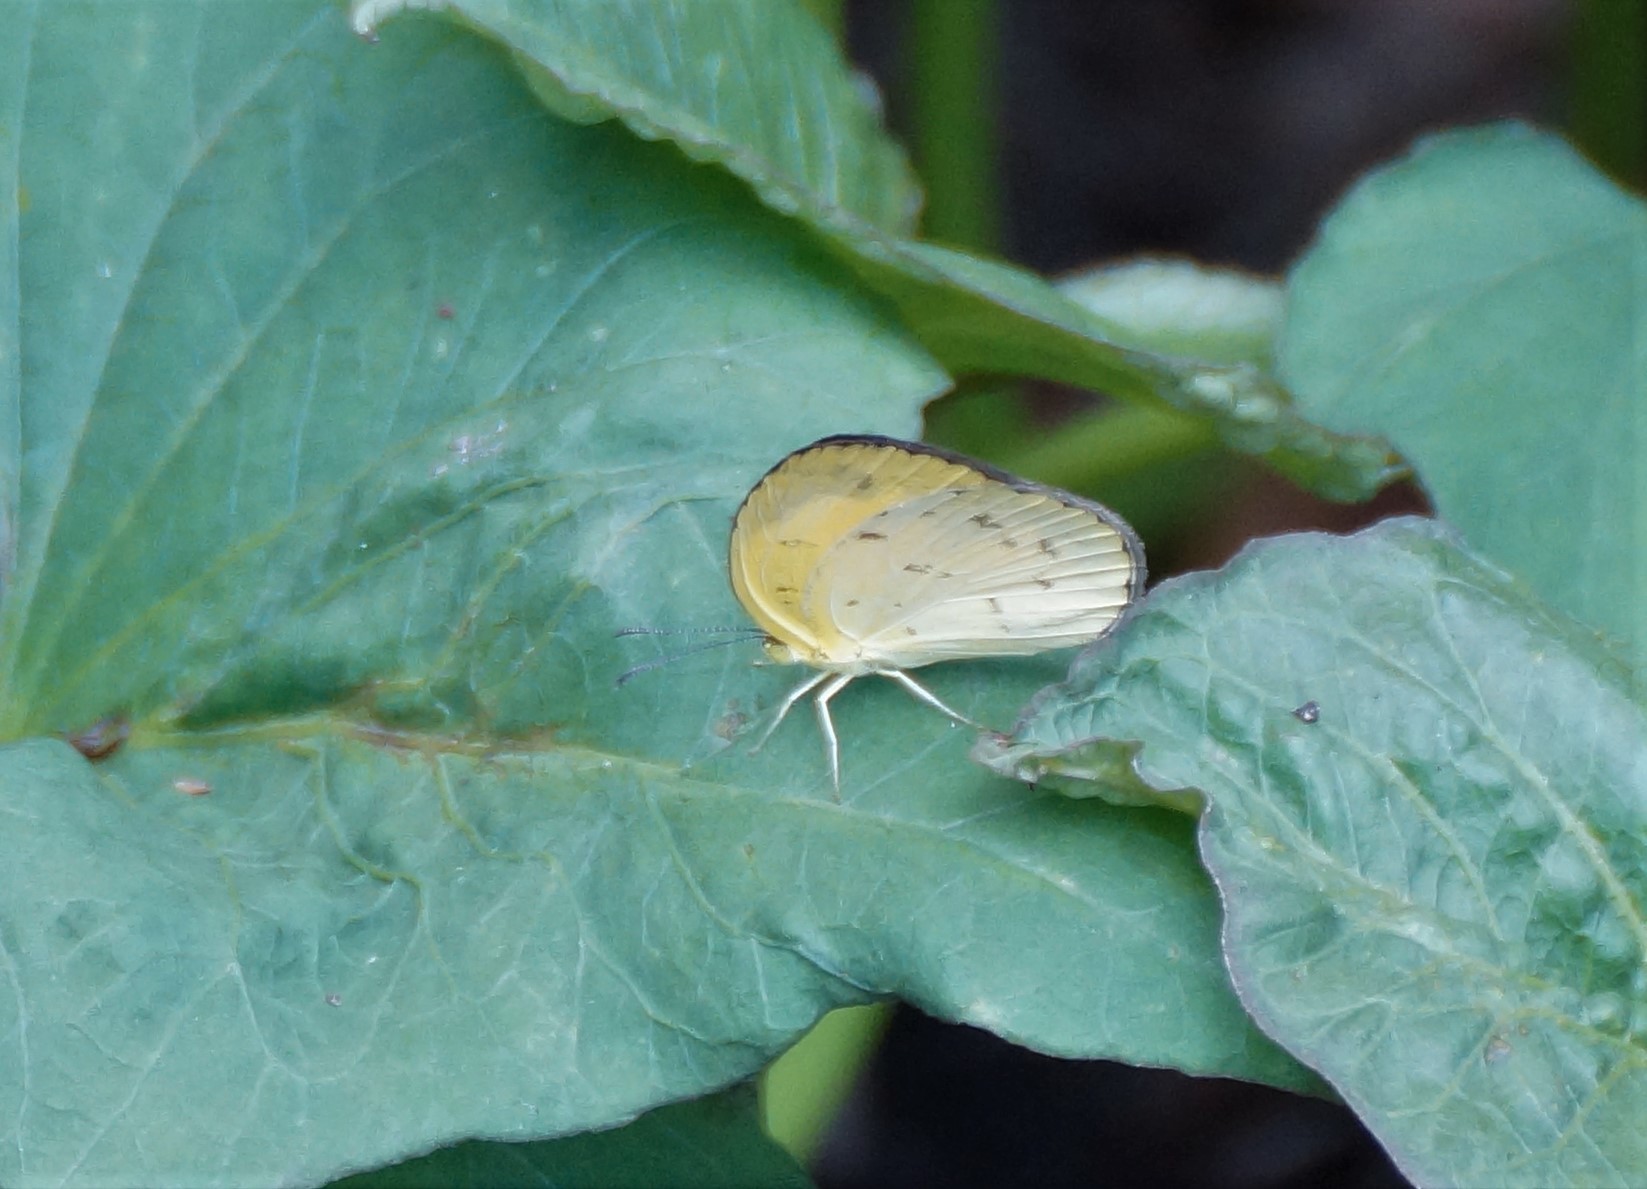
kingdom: Animalia
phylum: Arthropoda
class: Insecta
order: Lepidoptera
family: Pieridae
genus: Eurema
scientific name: Eurema hecabe
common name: Pale grass yellow
